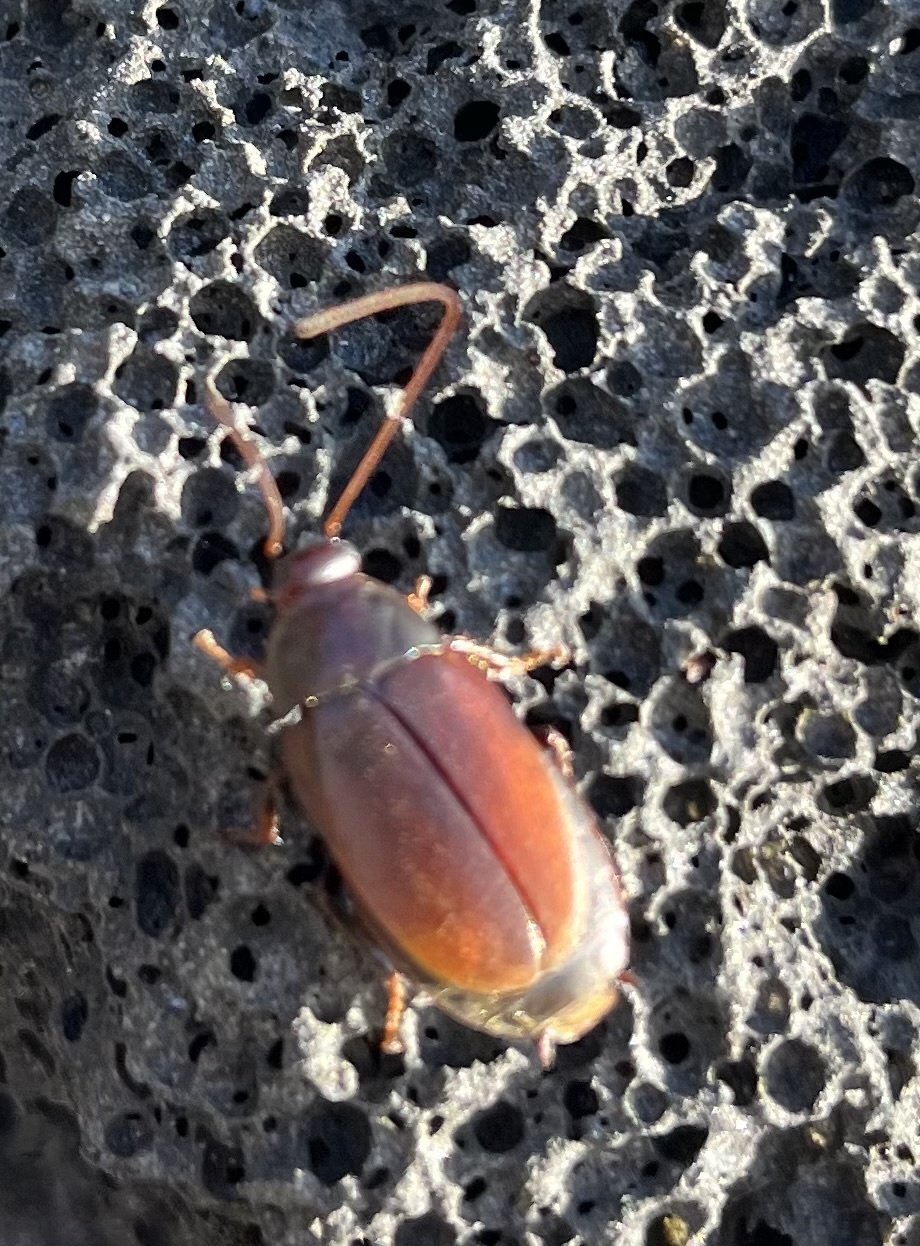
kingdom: Animalia
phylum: Arthropoda
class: Insecta
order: Blattodea
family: Blaberidae
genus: Diploptera
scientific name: Diploptera punctata
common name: Pacific beetle cockroach
